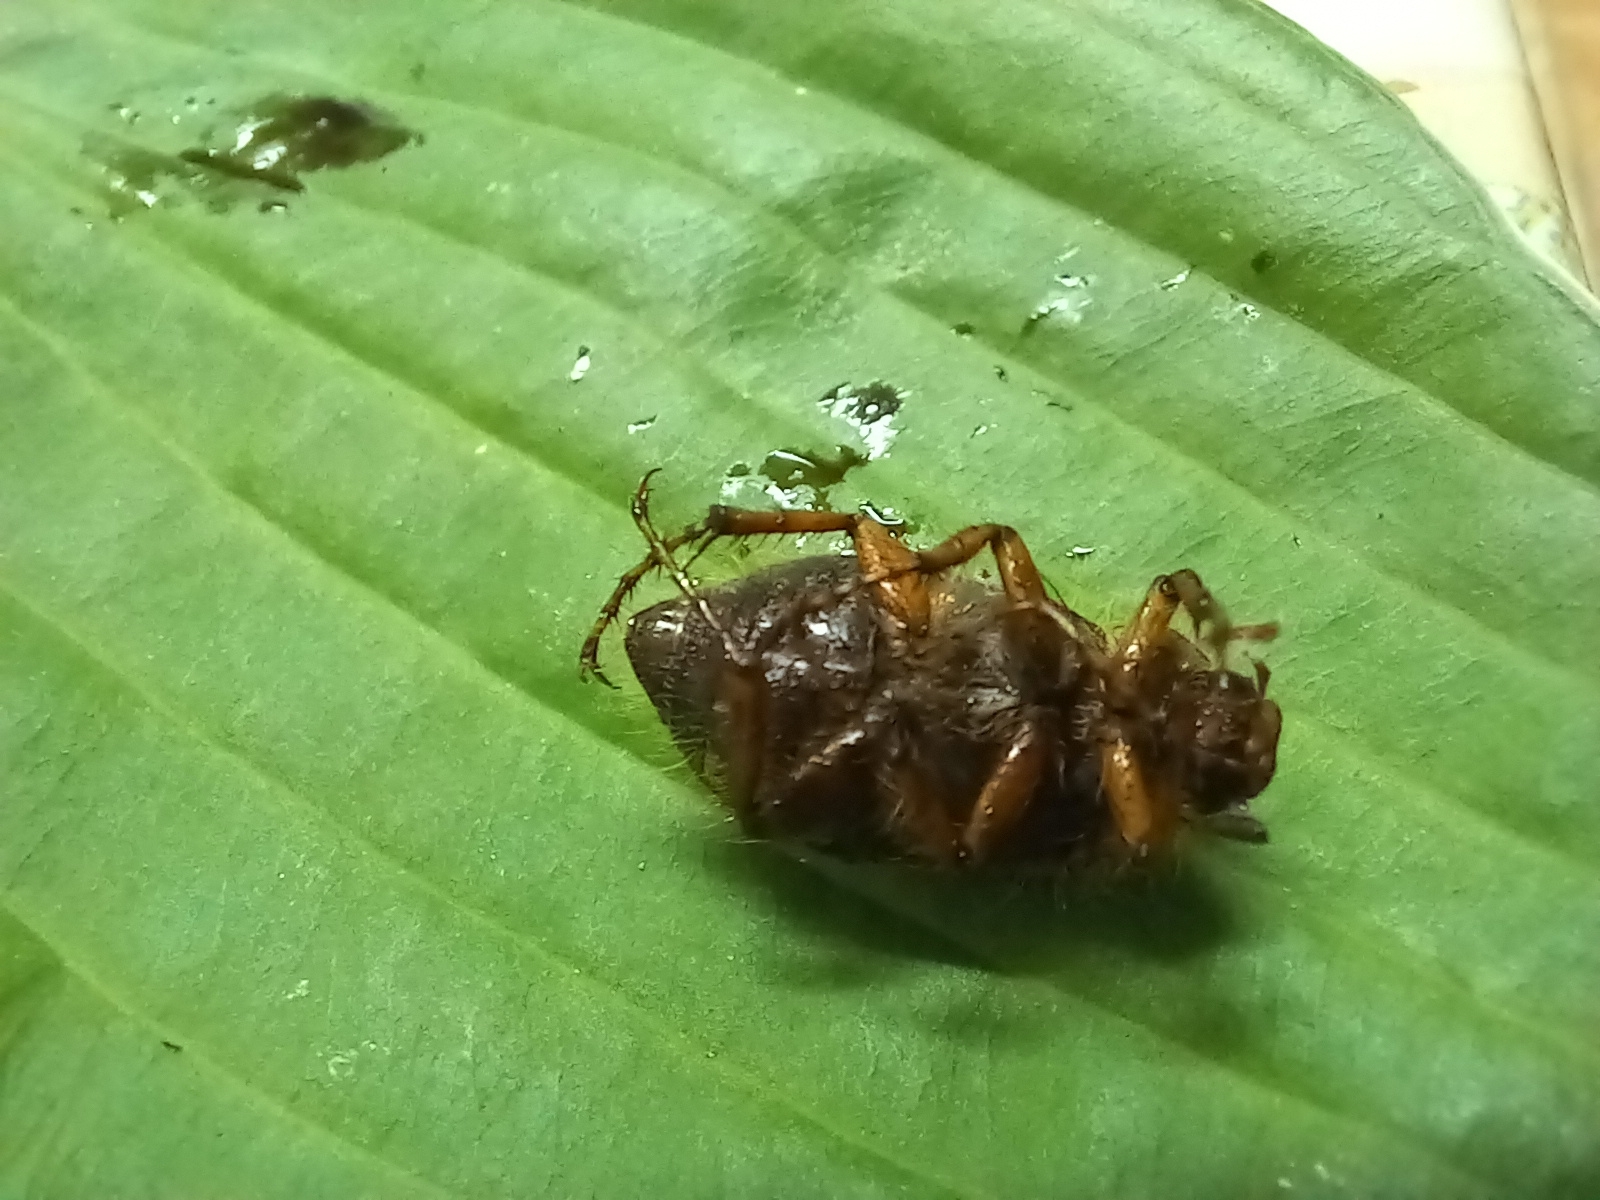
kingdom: Animalia
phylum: Arthropoda
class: Insecta
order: Coleoptera
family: Scarabaeidae
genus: Amphimallon
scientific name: Amphimallon solstitiale
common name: Summer chafer
